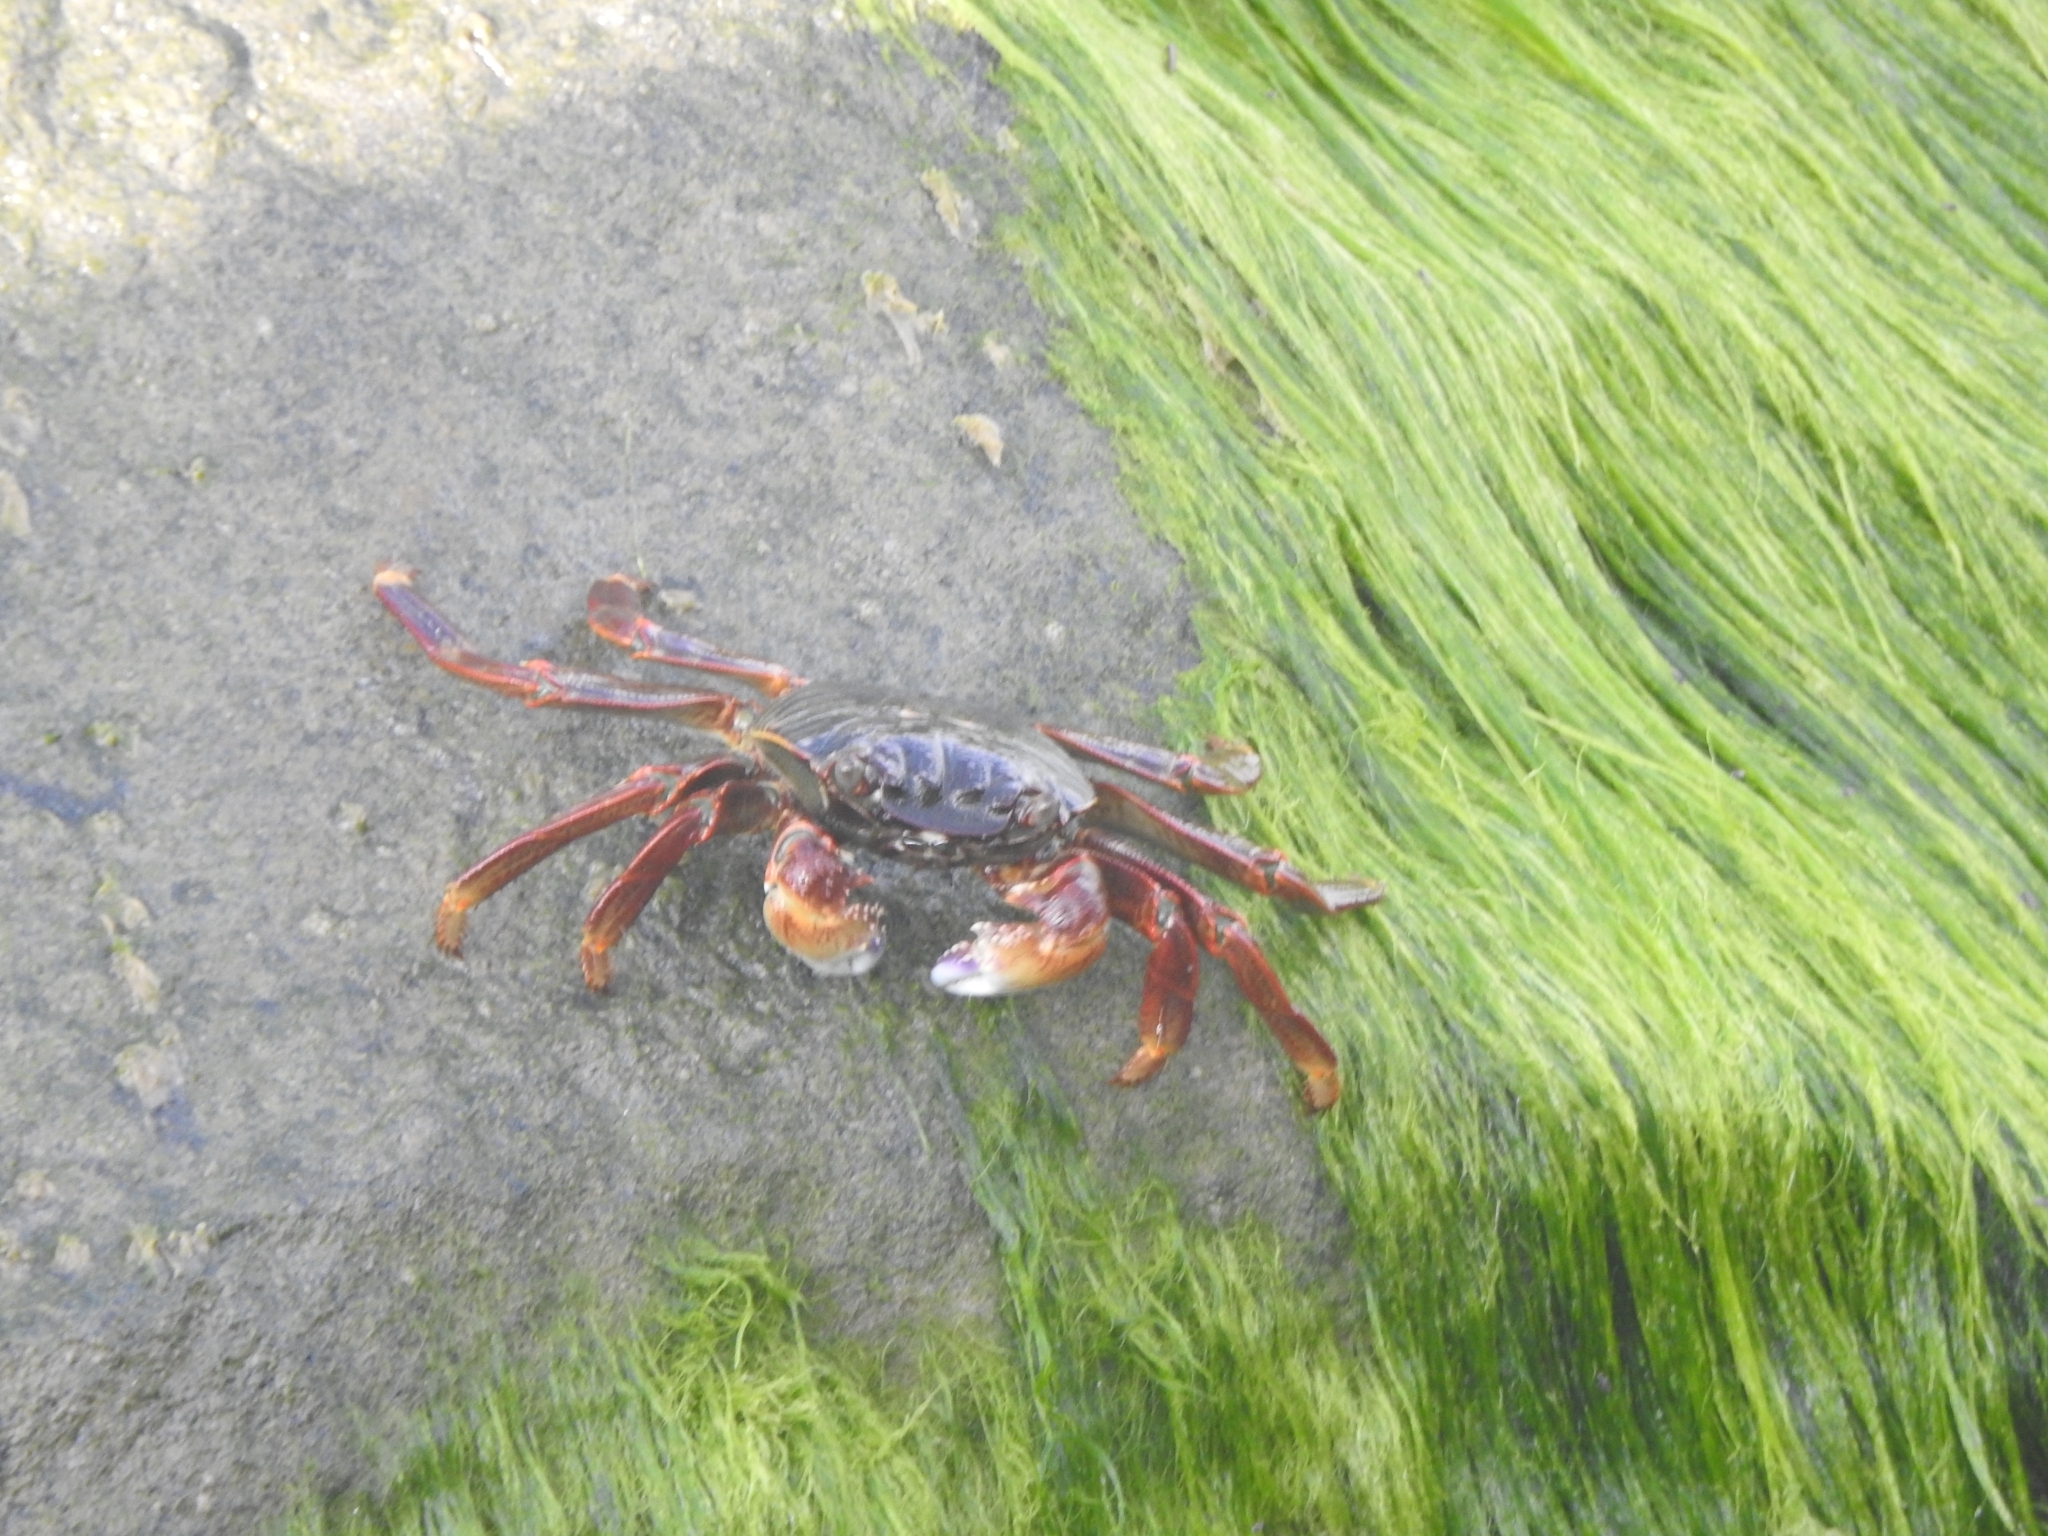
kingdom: Animalia
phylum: Arthropoda
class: Malacostraca
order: Decapoda
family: Grapsidae
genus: Grapsus
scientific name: Grapsus albolineatus
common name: Mottled lightfoot crab
